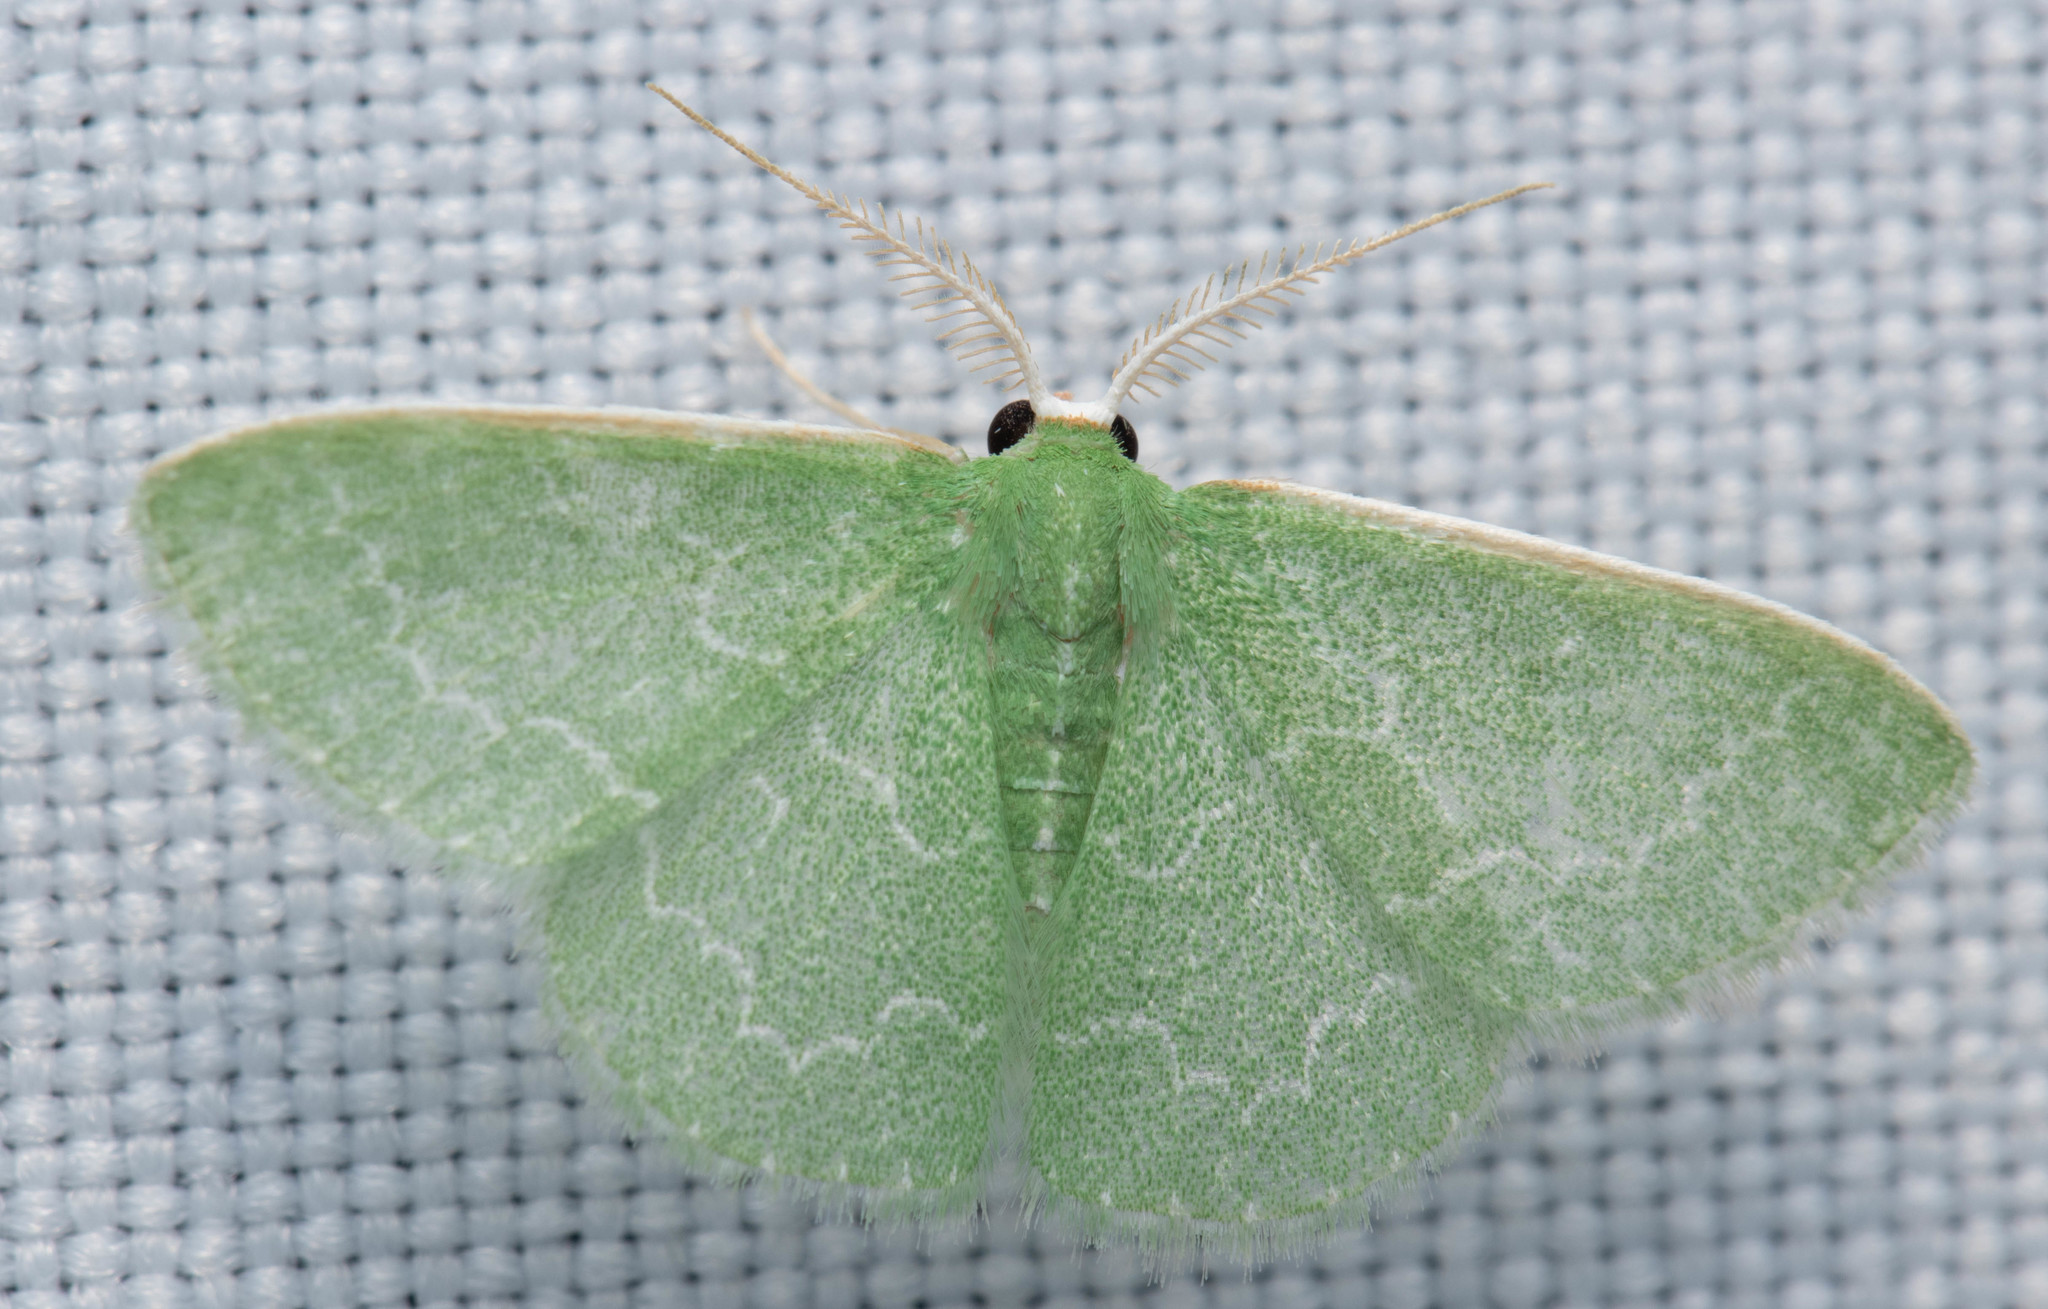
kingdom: Animalia
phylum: Arthropoda
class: Insecta
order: Lepidoptera
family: Geometridae
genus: Synchlora
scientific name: Synchlora frondaria
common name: Southern emerald
